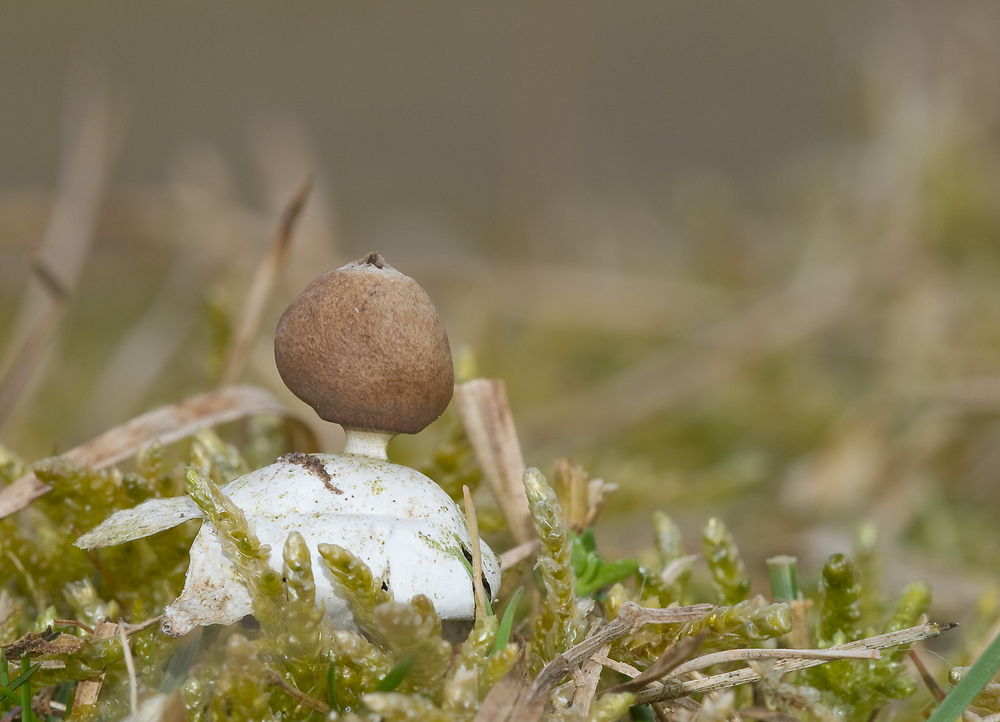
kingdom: Fungi
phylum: Basidiomycota
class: Agaricomycetes
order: Geastrales
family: Geastraceae
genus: Geastrum
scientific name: Geastrum pectinatum
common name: Beaked earthstar
